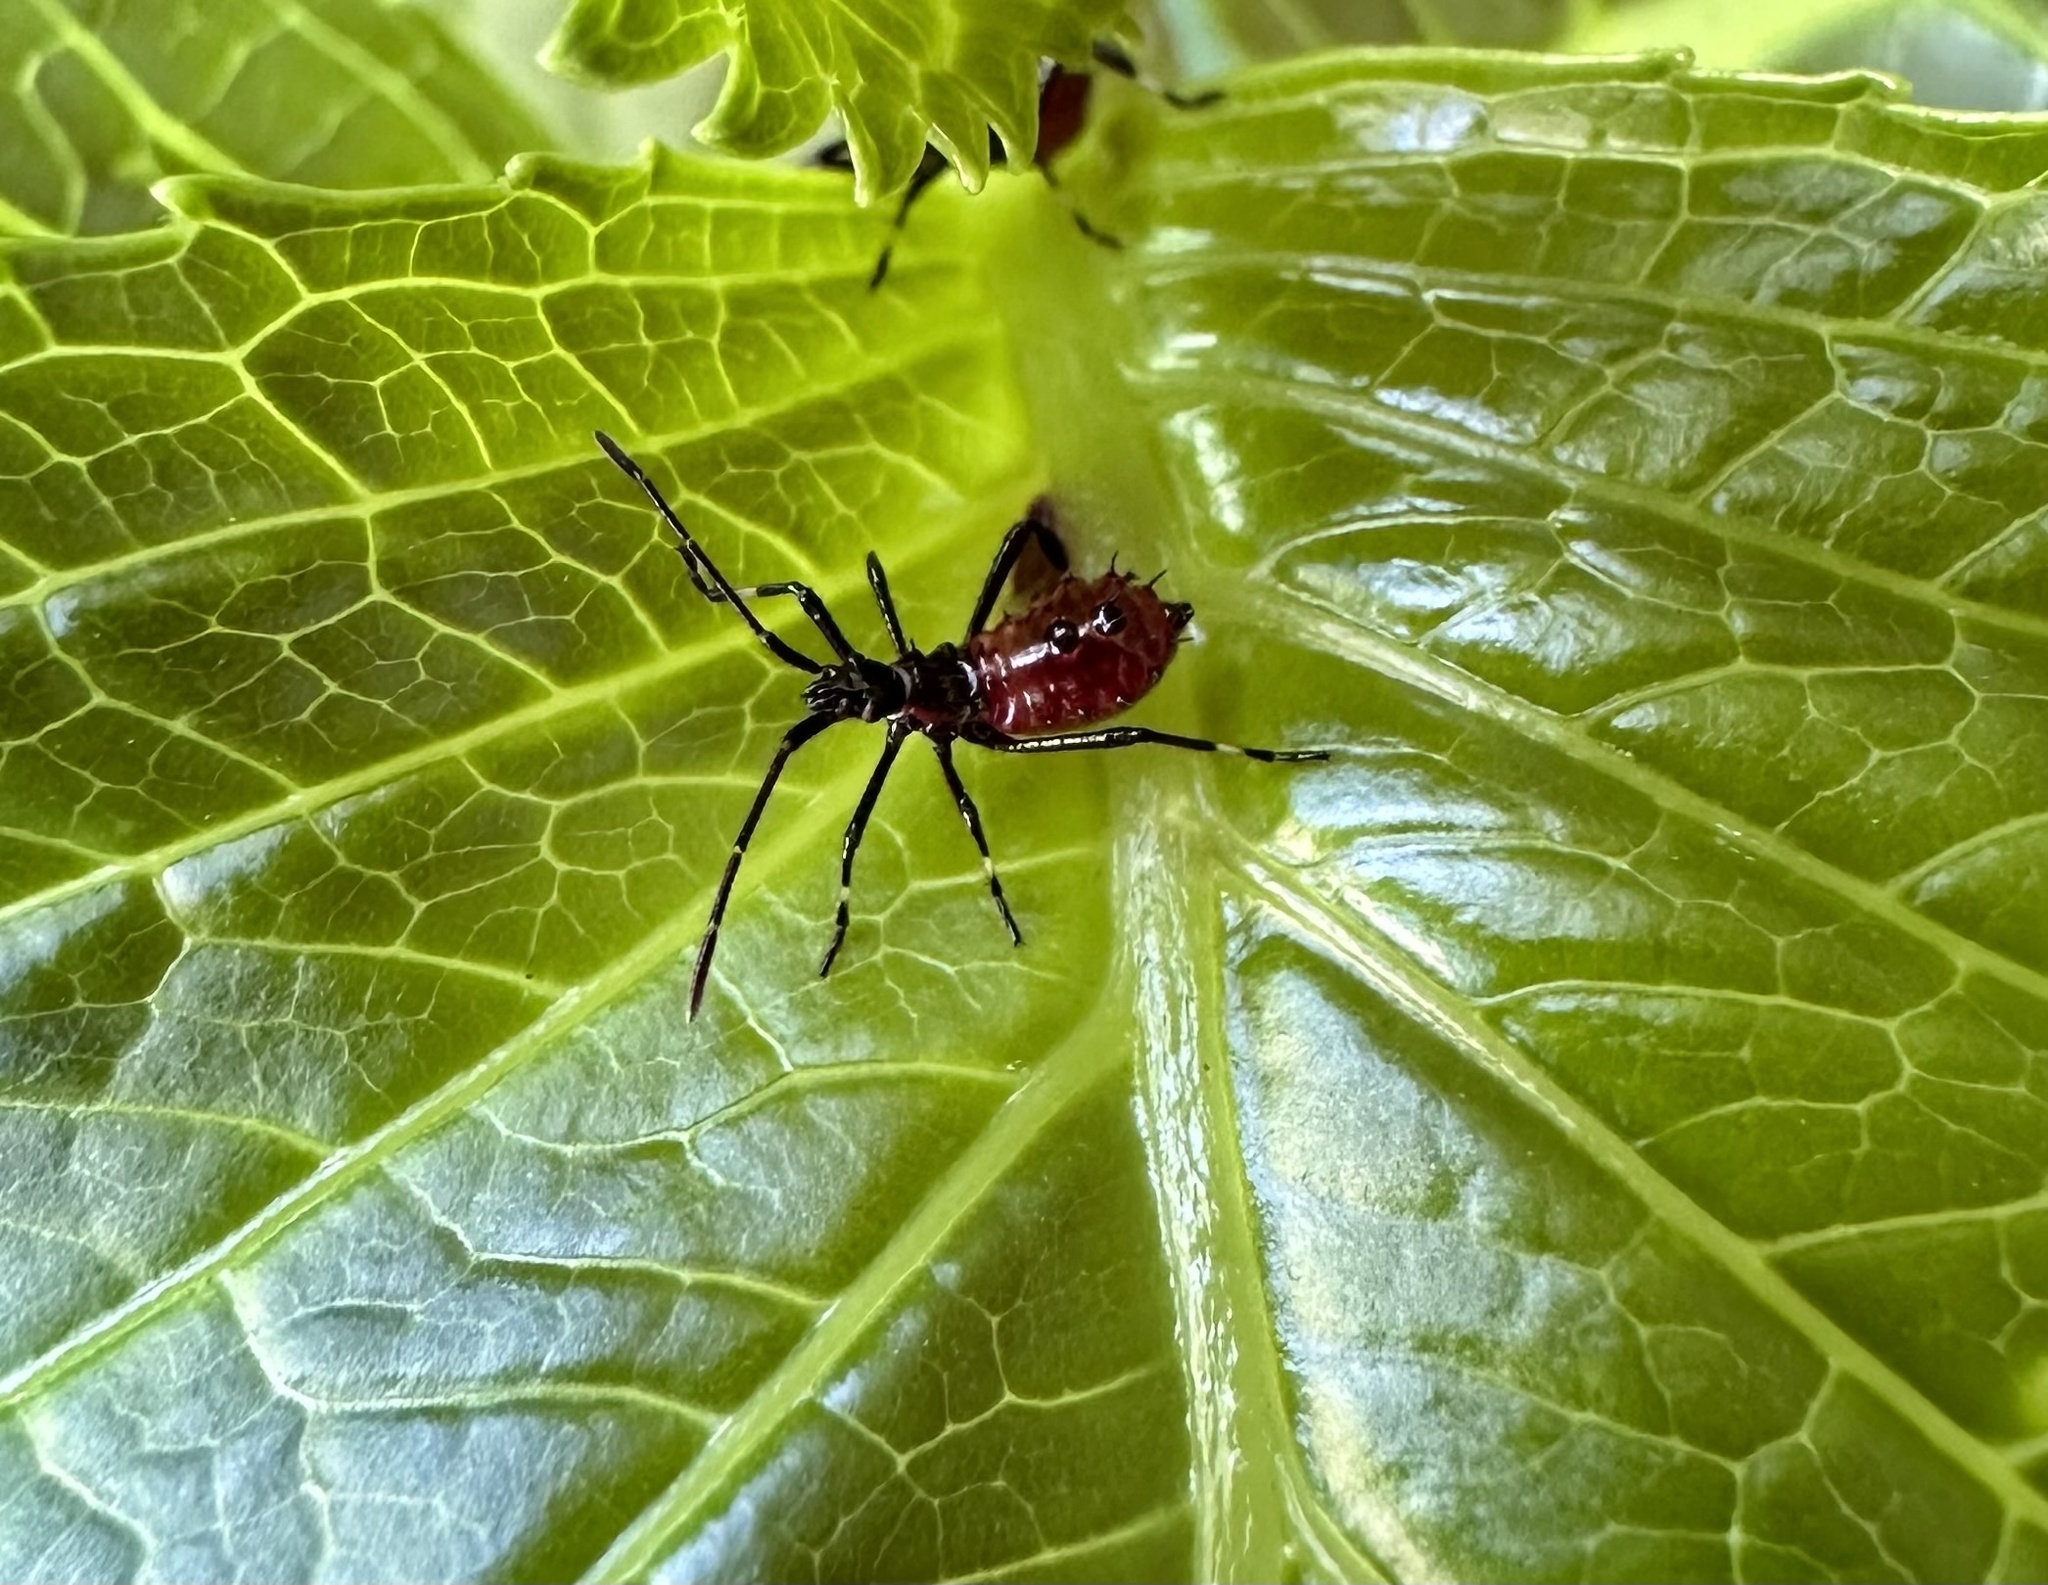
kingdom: Animalia
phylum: Arthropoda
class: Insecta
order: Hemiptera
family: Coreidae
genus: Leptoglossus
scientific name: Leptoglossus chilensis
